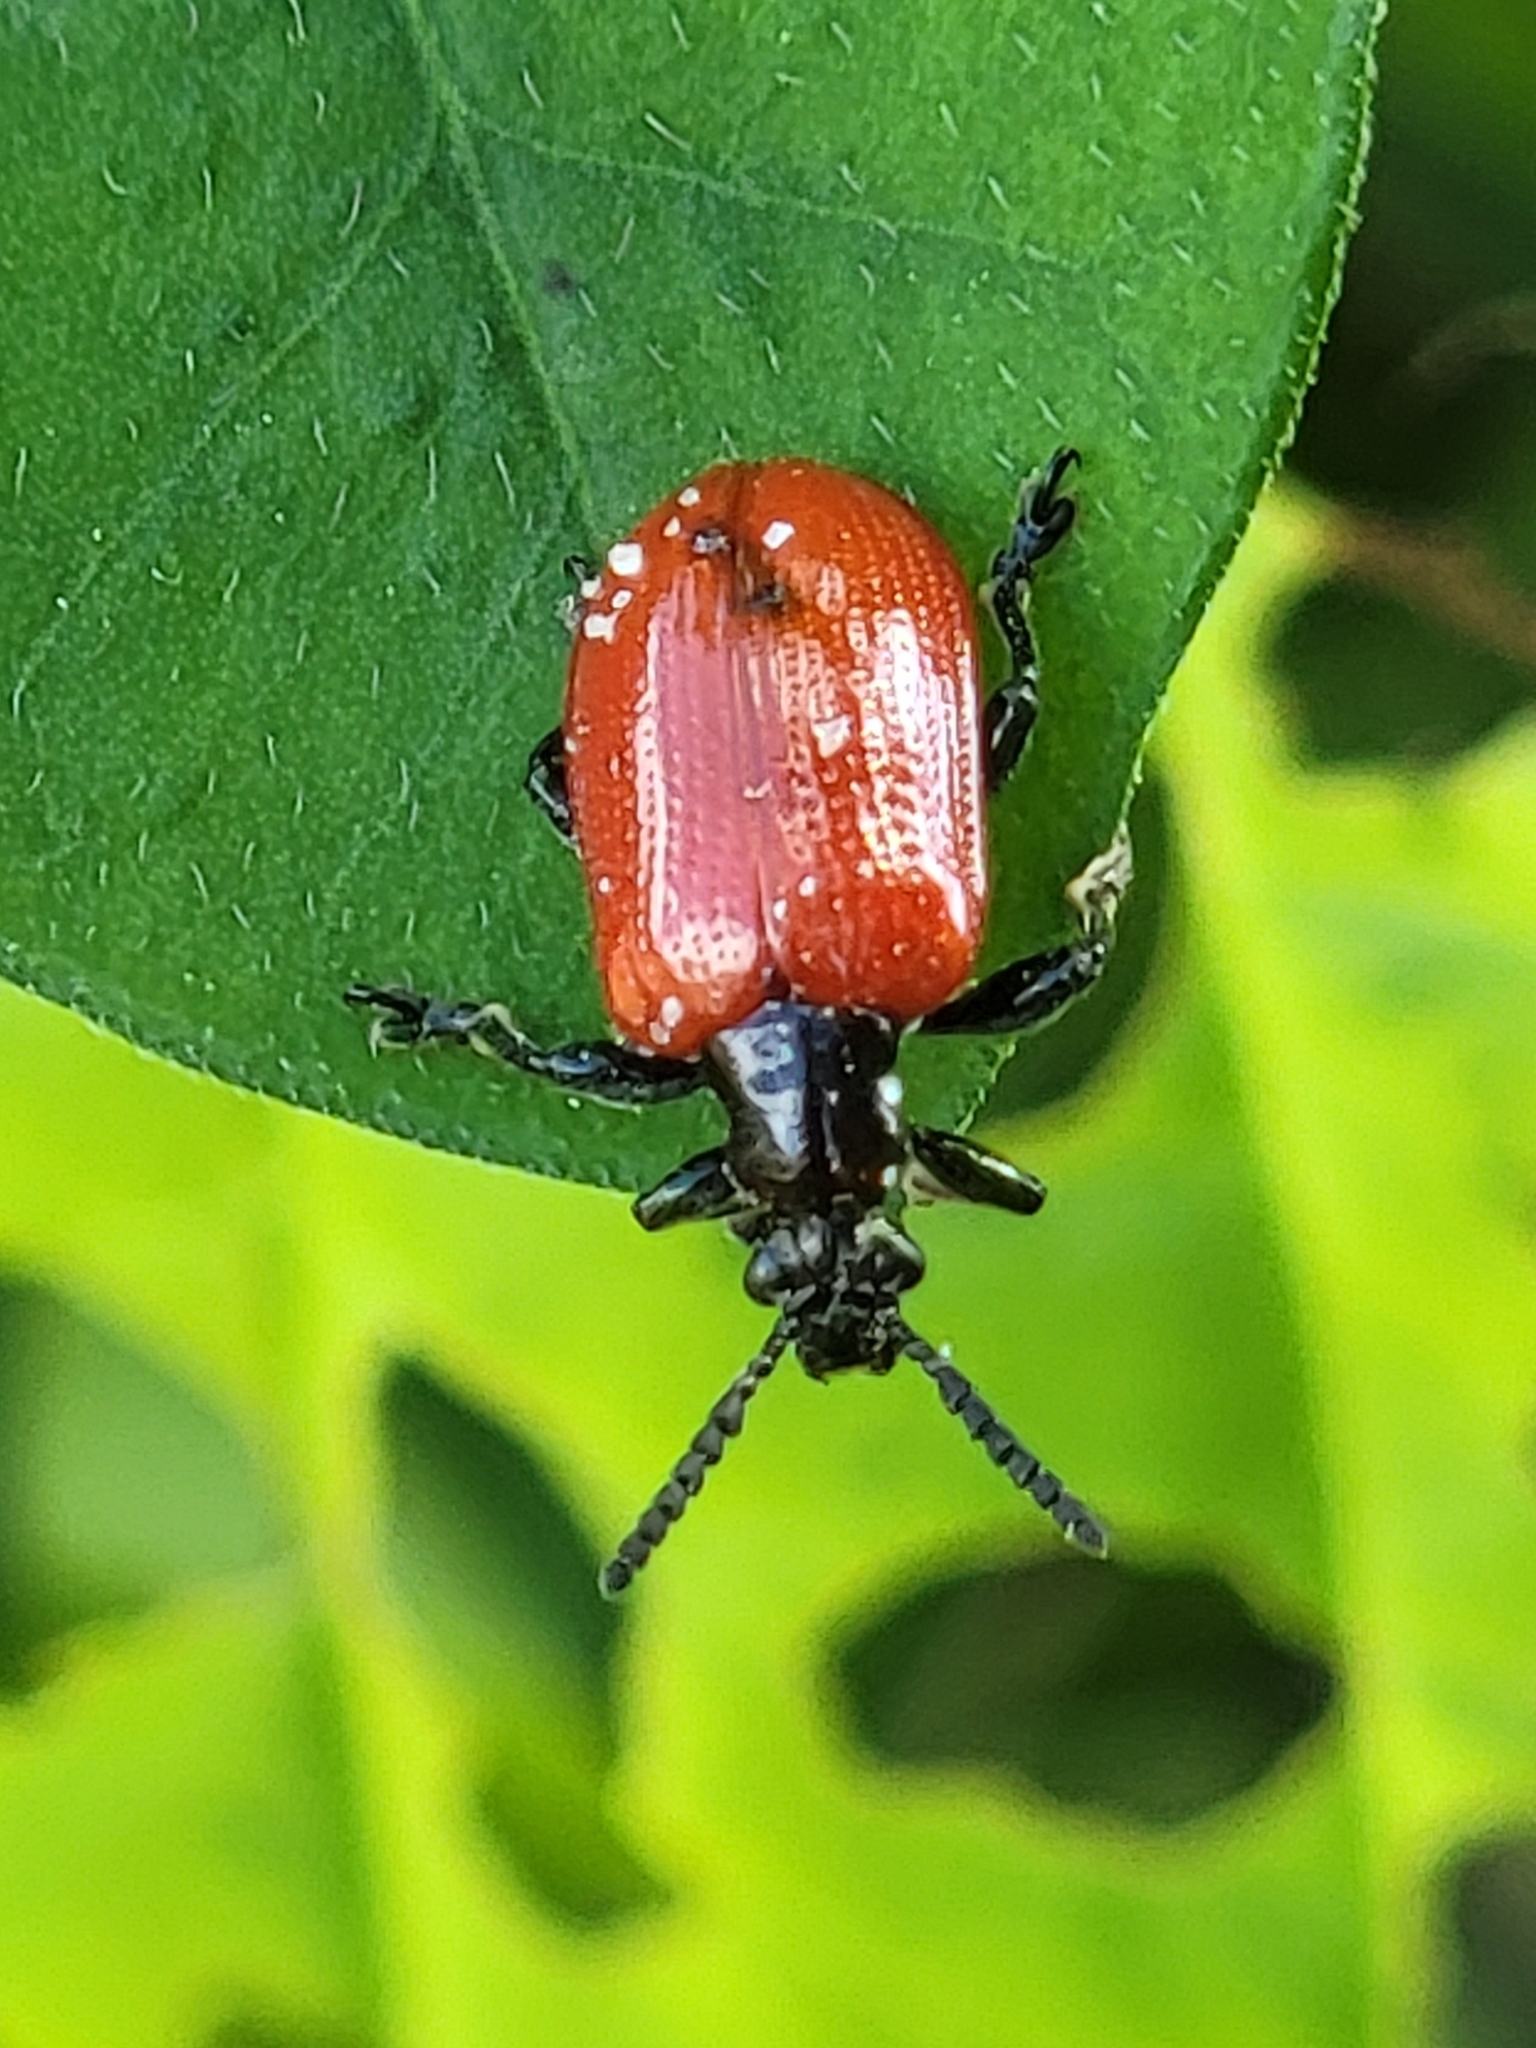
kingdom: Animalia
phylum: Arthropoda
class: Insecta
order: Coleoptera
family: Chrysomelidae
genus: Lilioceris
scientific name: Lilioceris cheni
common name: Leaf beetle
